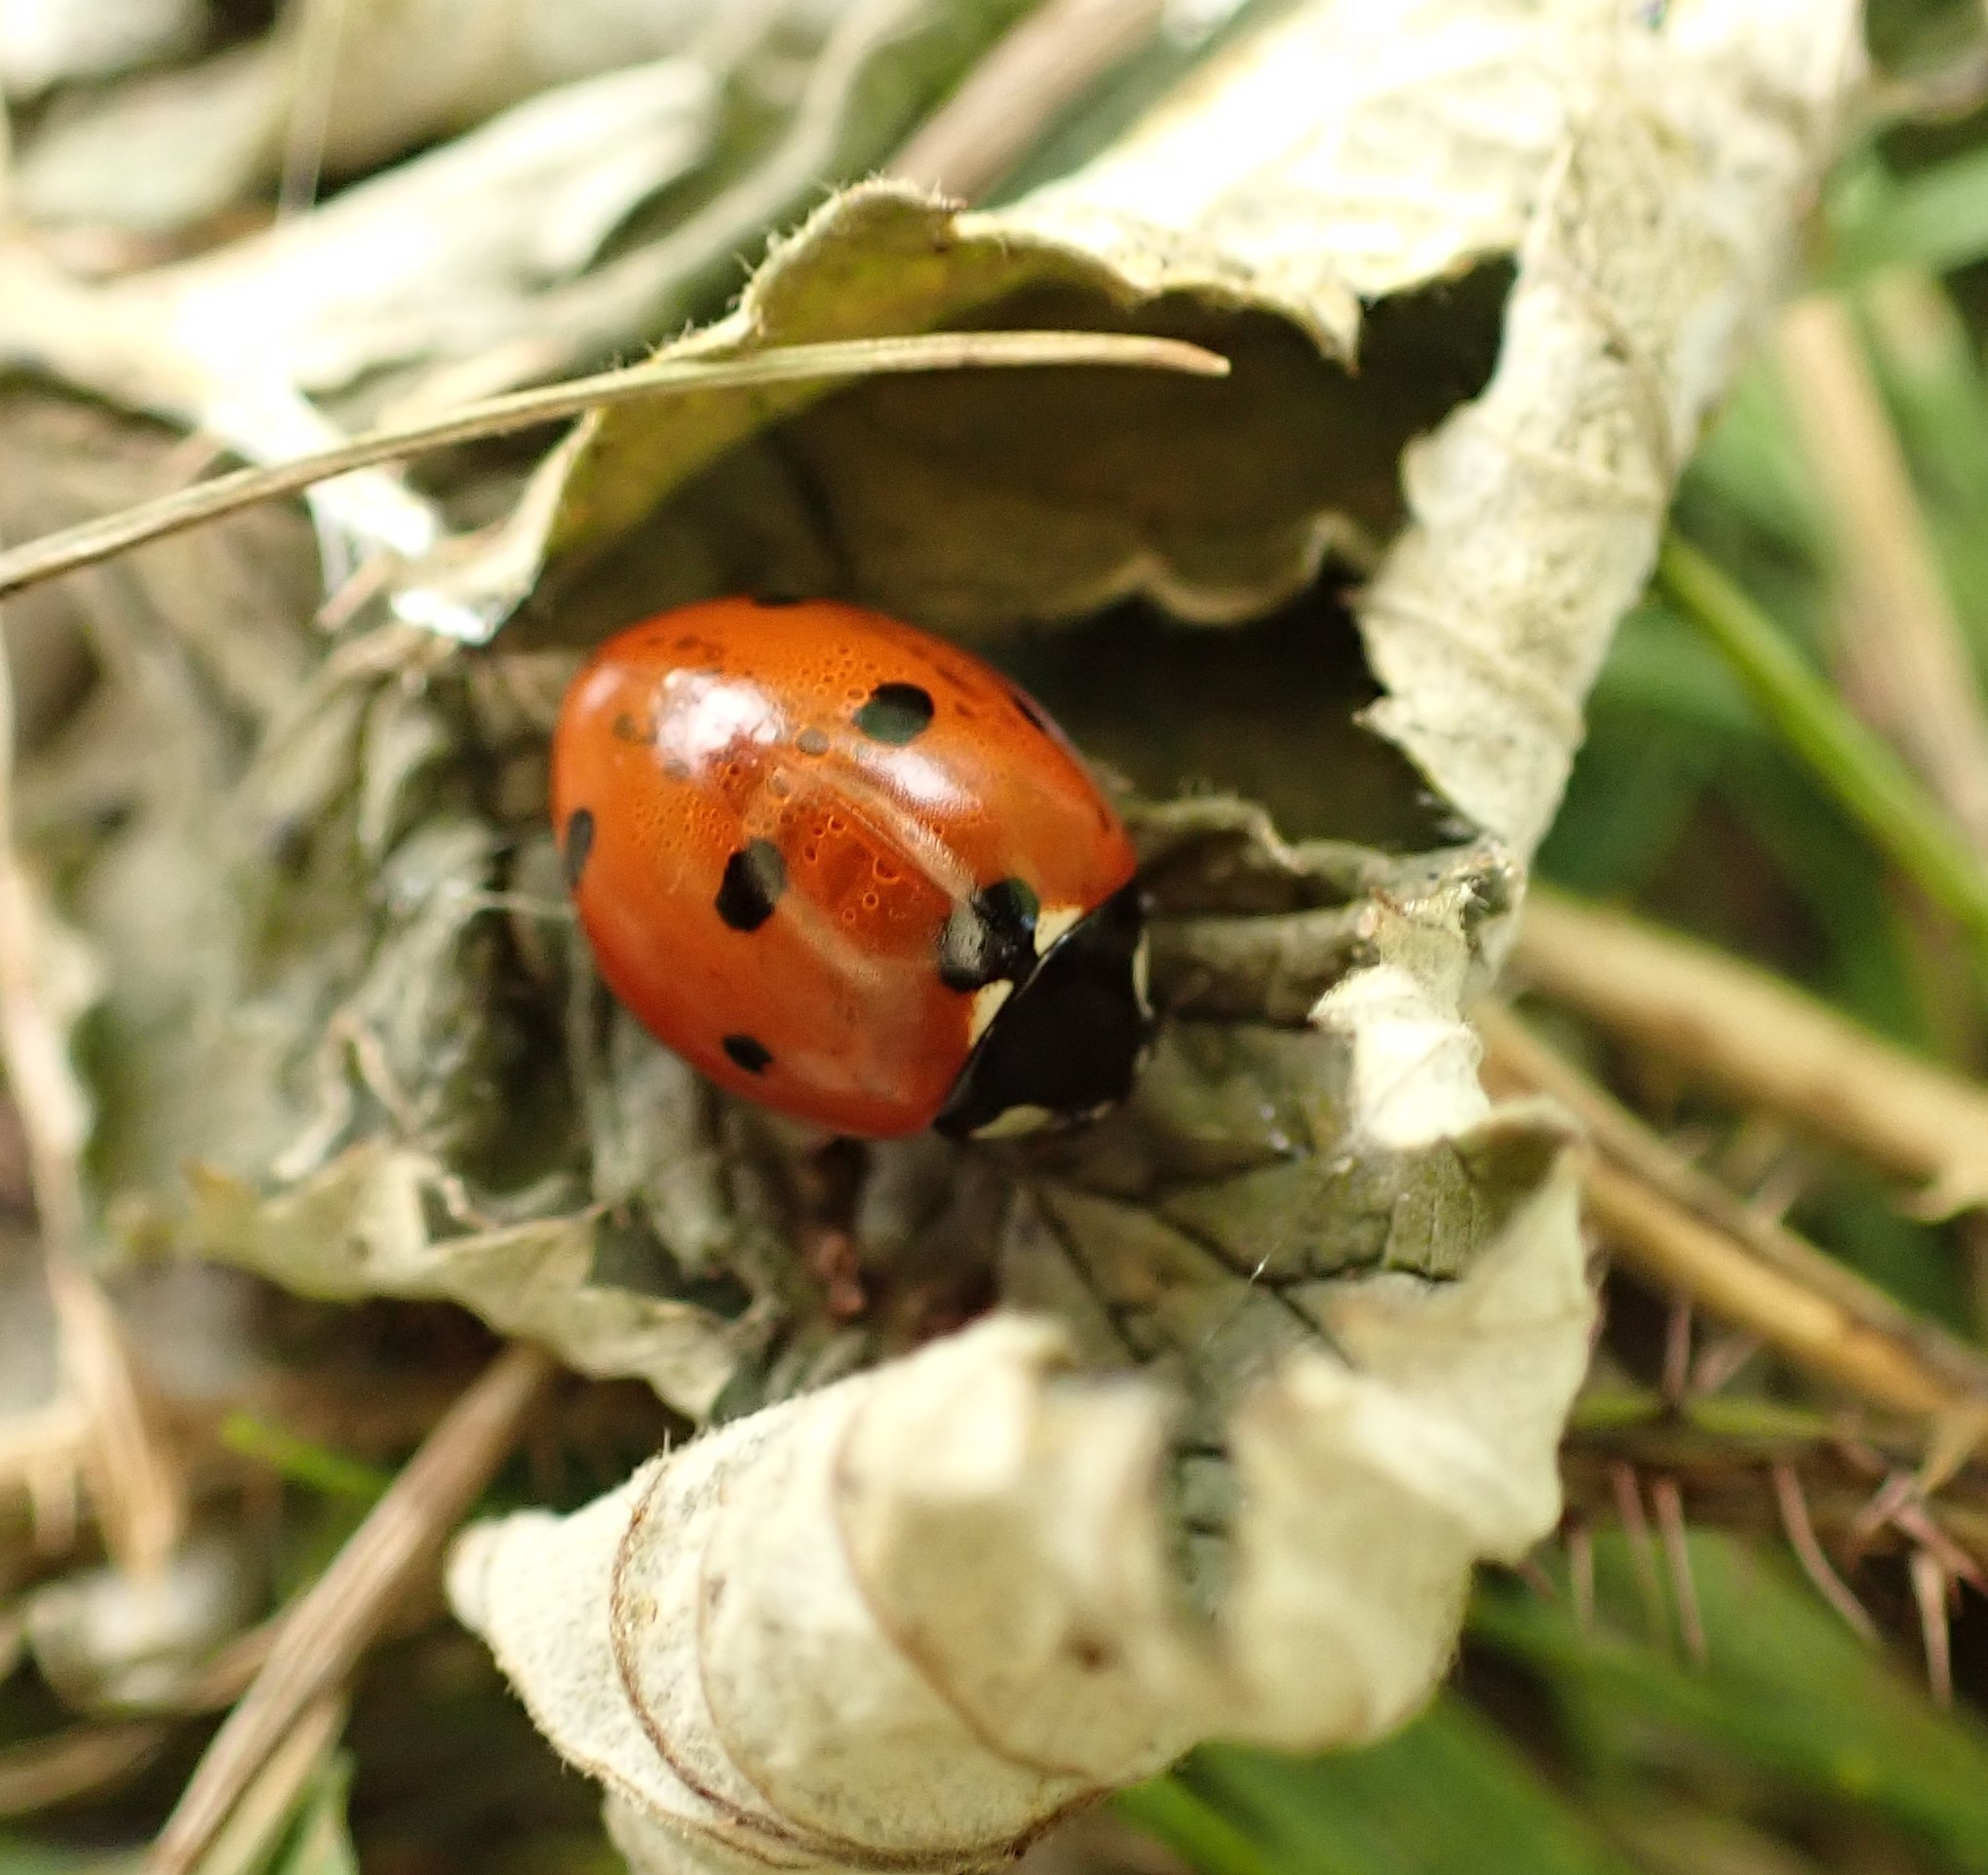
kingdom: Animalia
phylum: Arthropoda
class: Insecta
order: Coleoptera
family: Coccinellidae
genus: Coccinella
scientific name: Coccinella septempunctata
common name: Sevenspotted lady beetle
